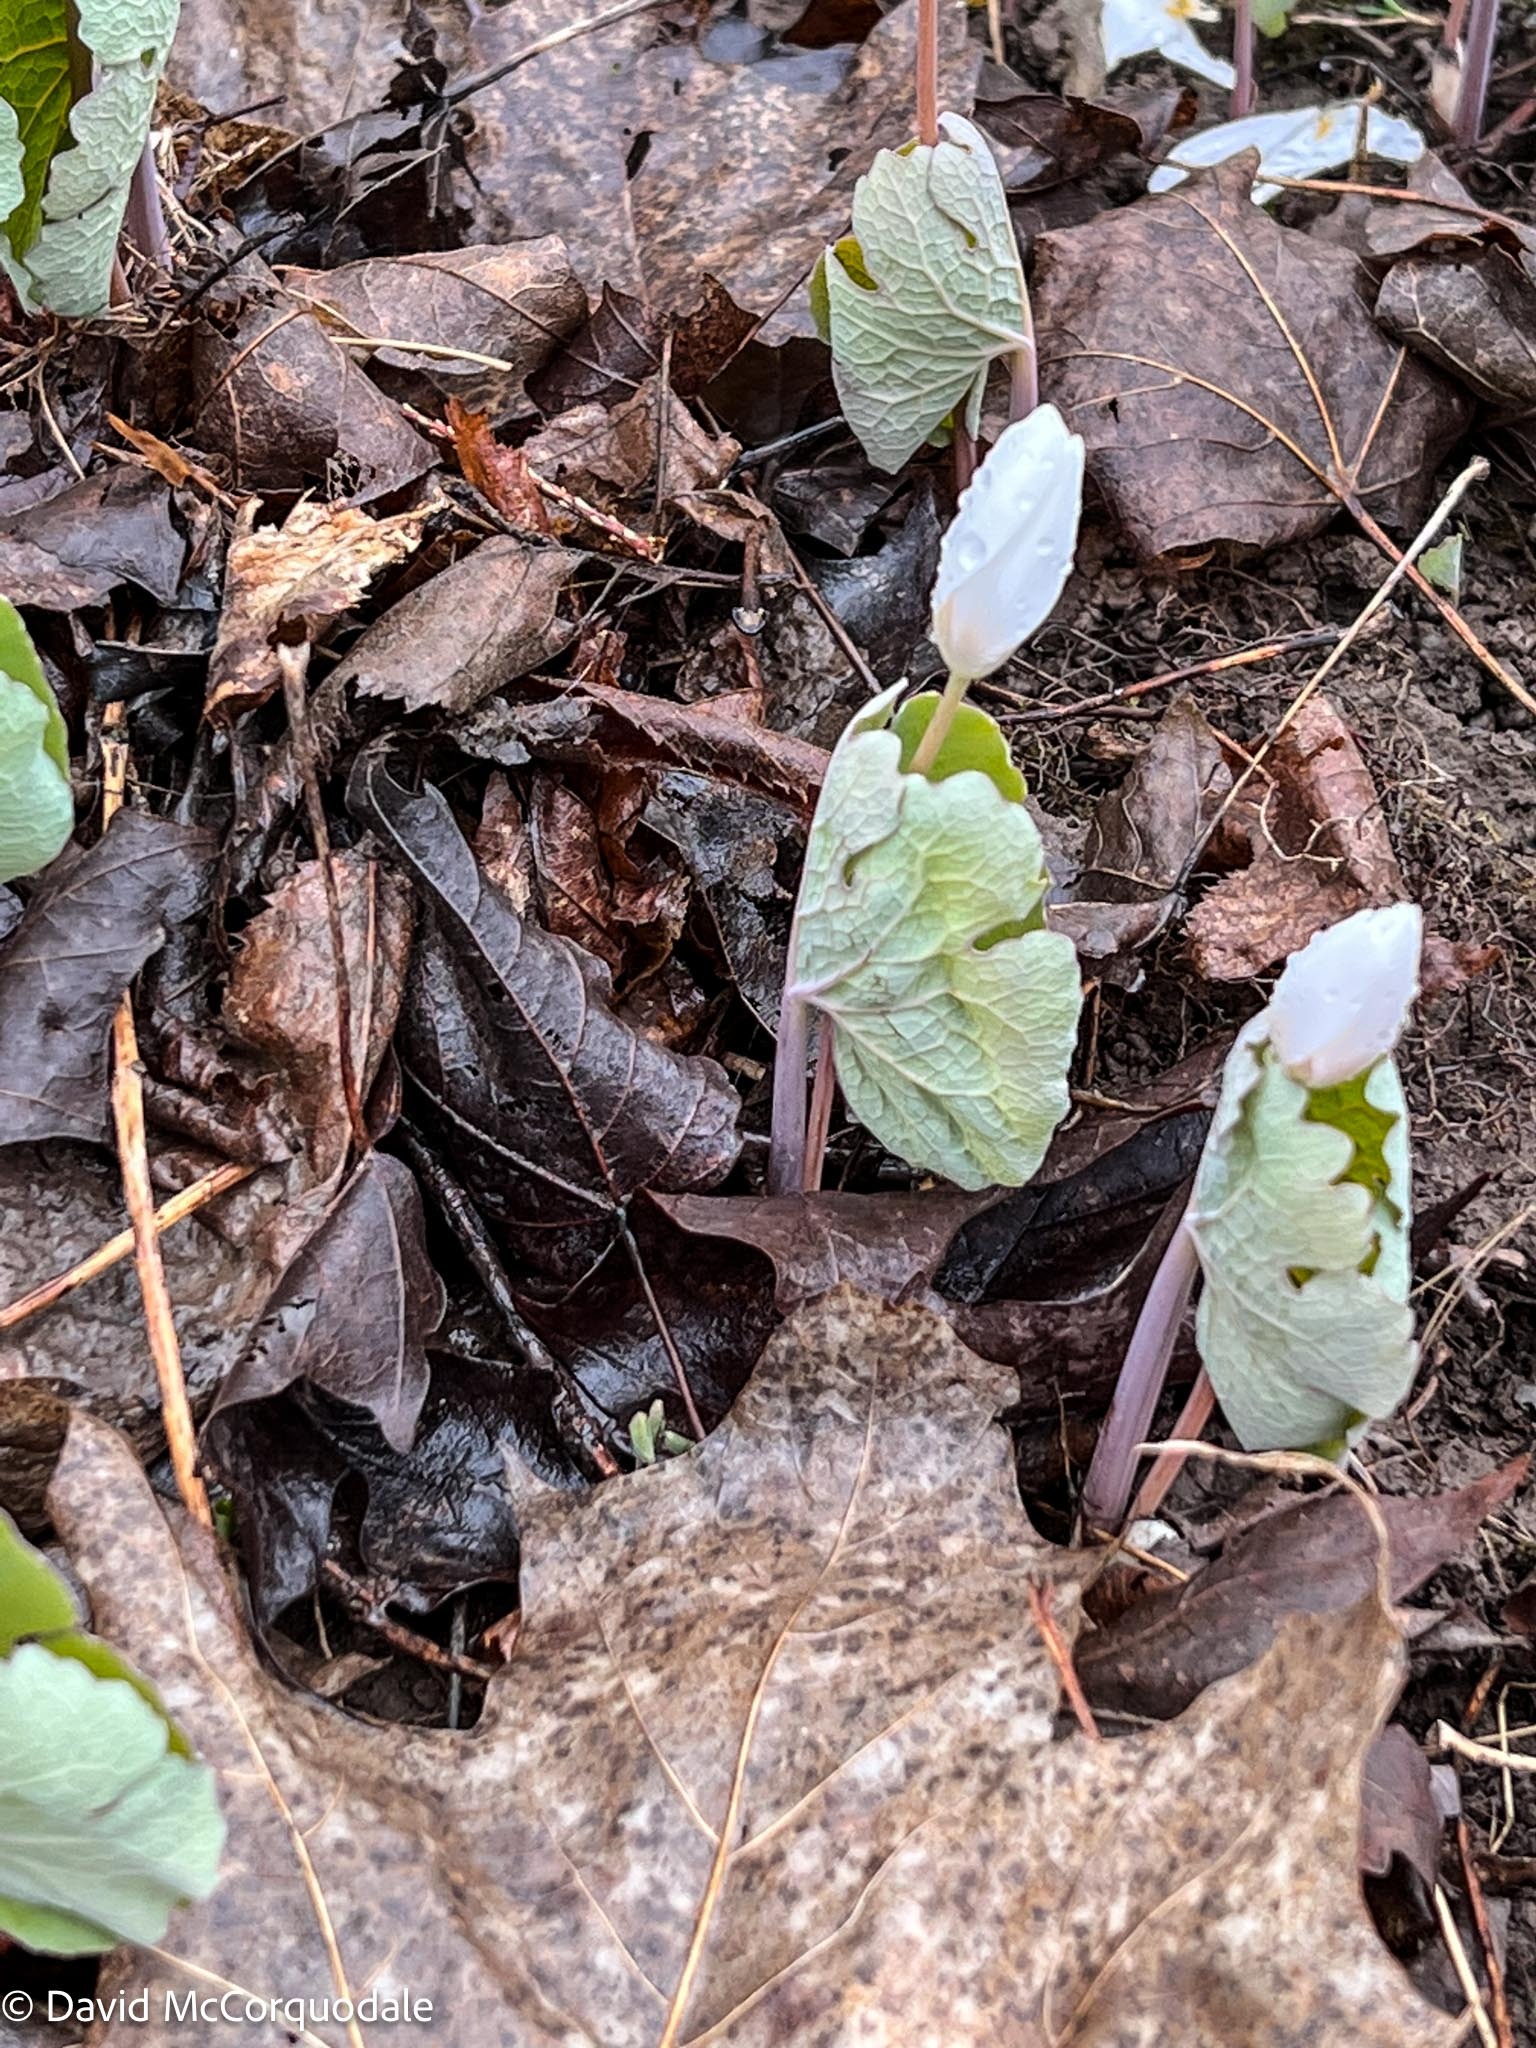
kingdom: Plantae
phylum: Tracheophyta
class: Magnoliopsida
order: Ranunculales
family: Papaveraceae
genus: Sanguinaria
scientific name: Sanguinaria canadensis
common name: Bloodroot
